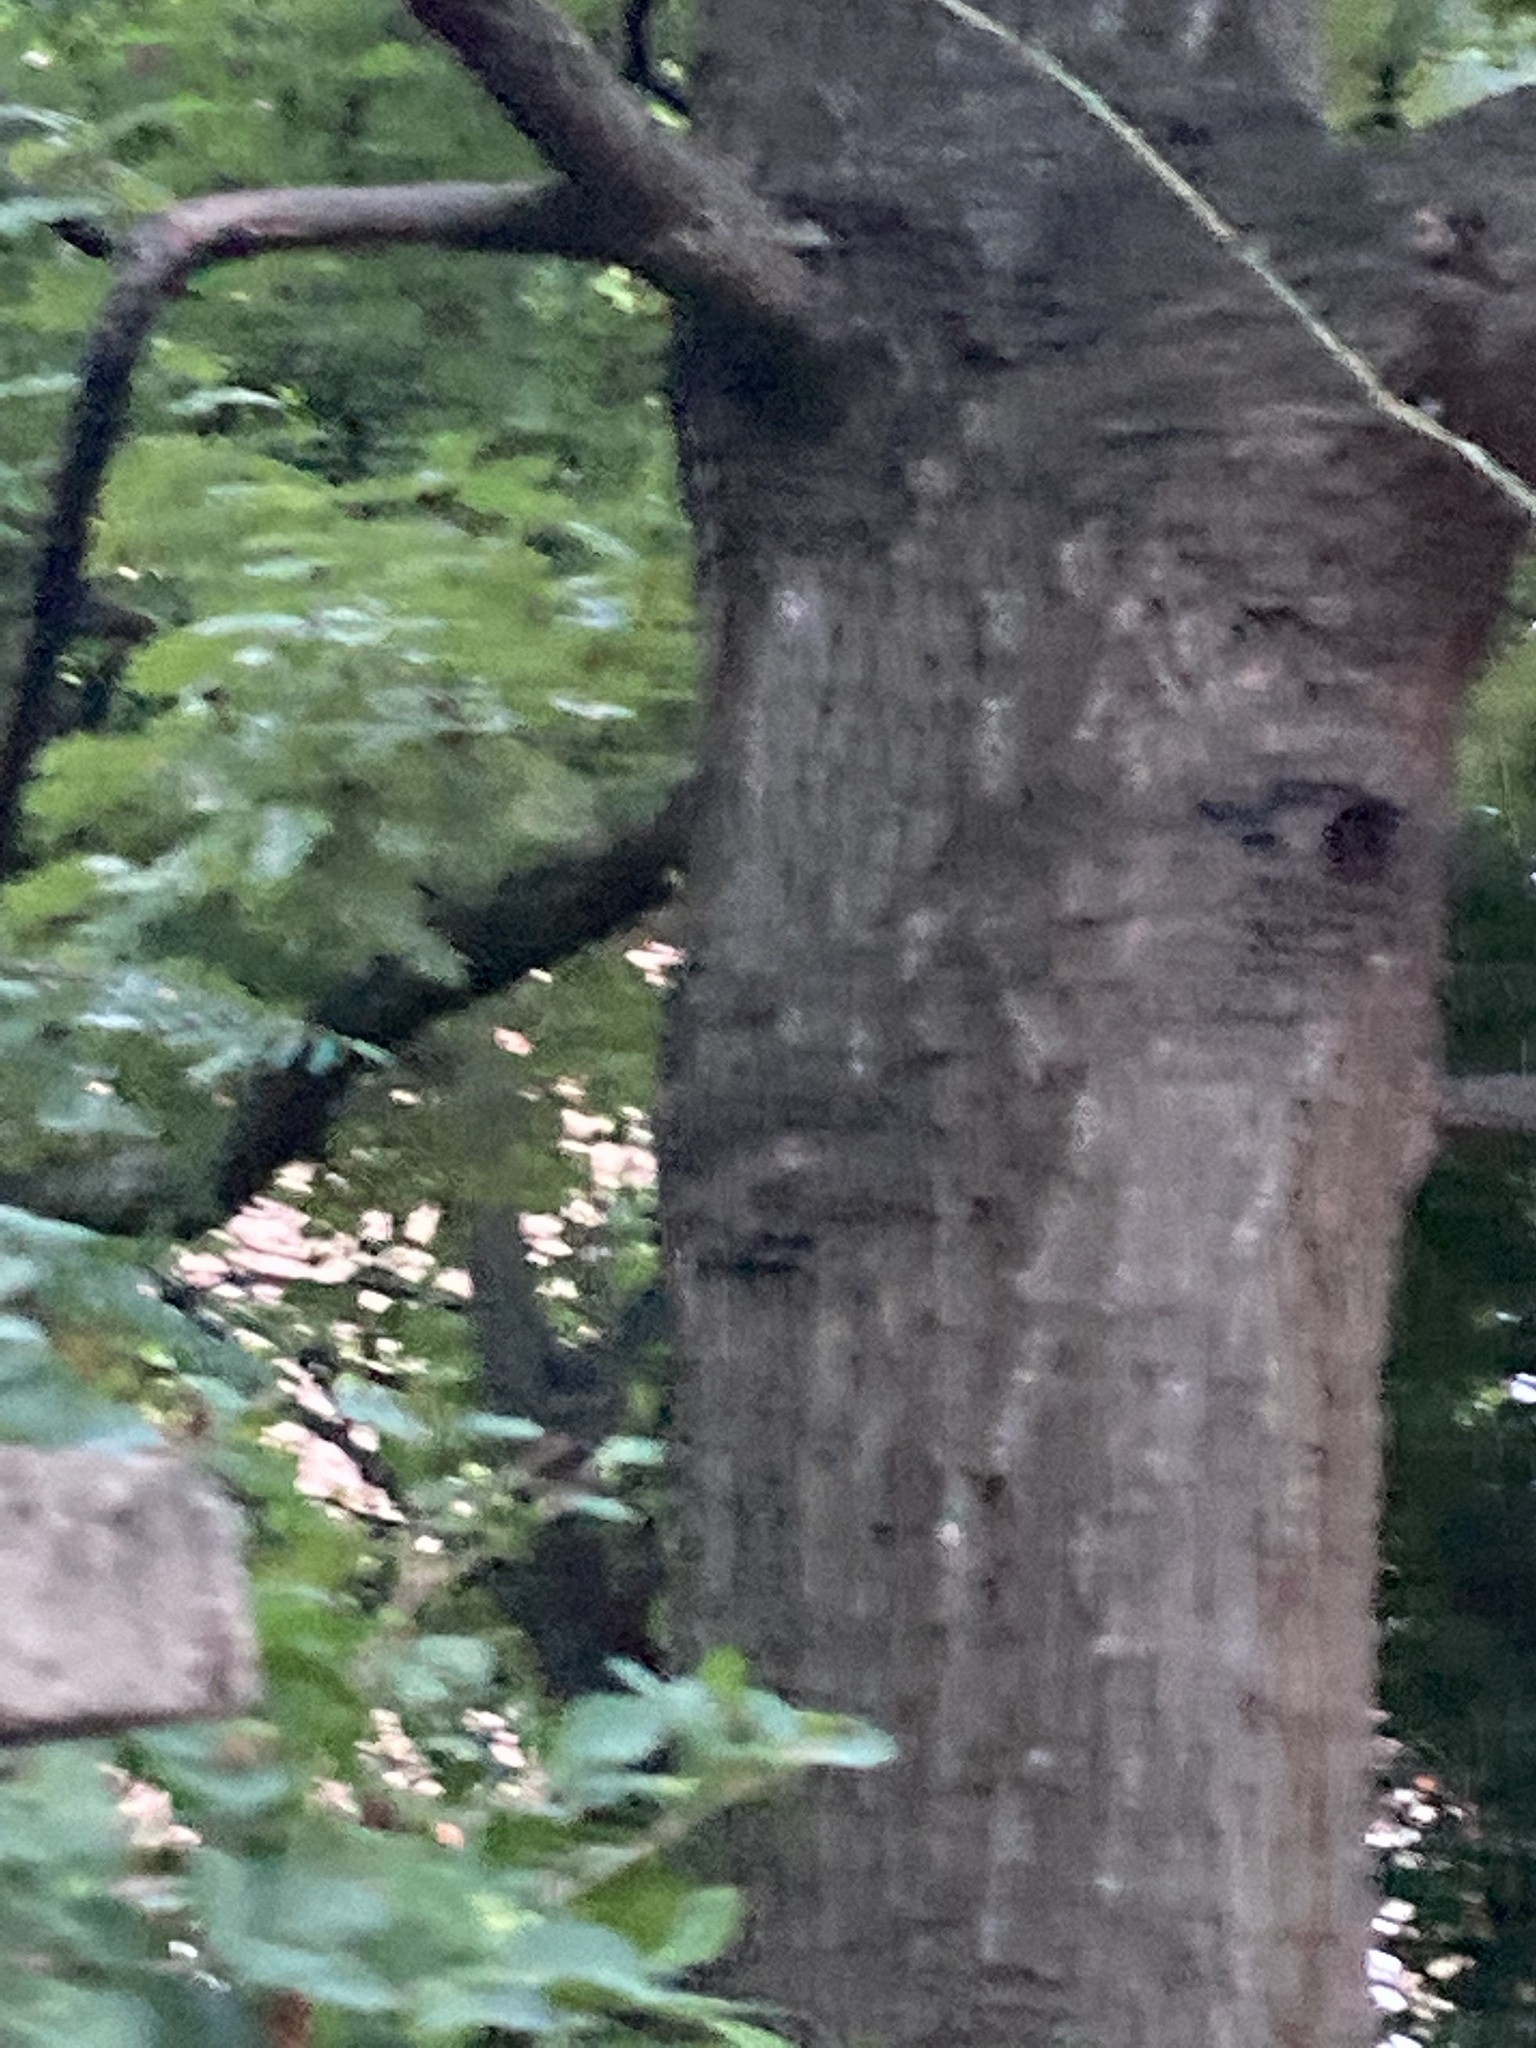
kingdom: Plantae
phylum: Tracheophyta
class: Magnoliopsida
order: Fagales
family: Fagaceae
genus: Quercus
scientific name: Quercus robur
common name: Pedunculate oak
